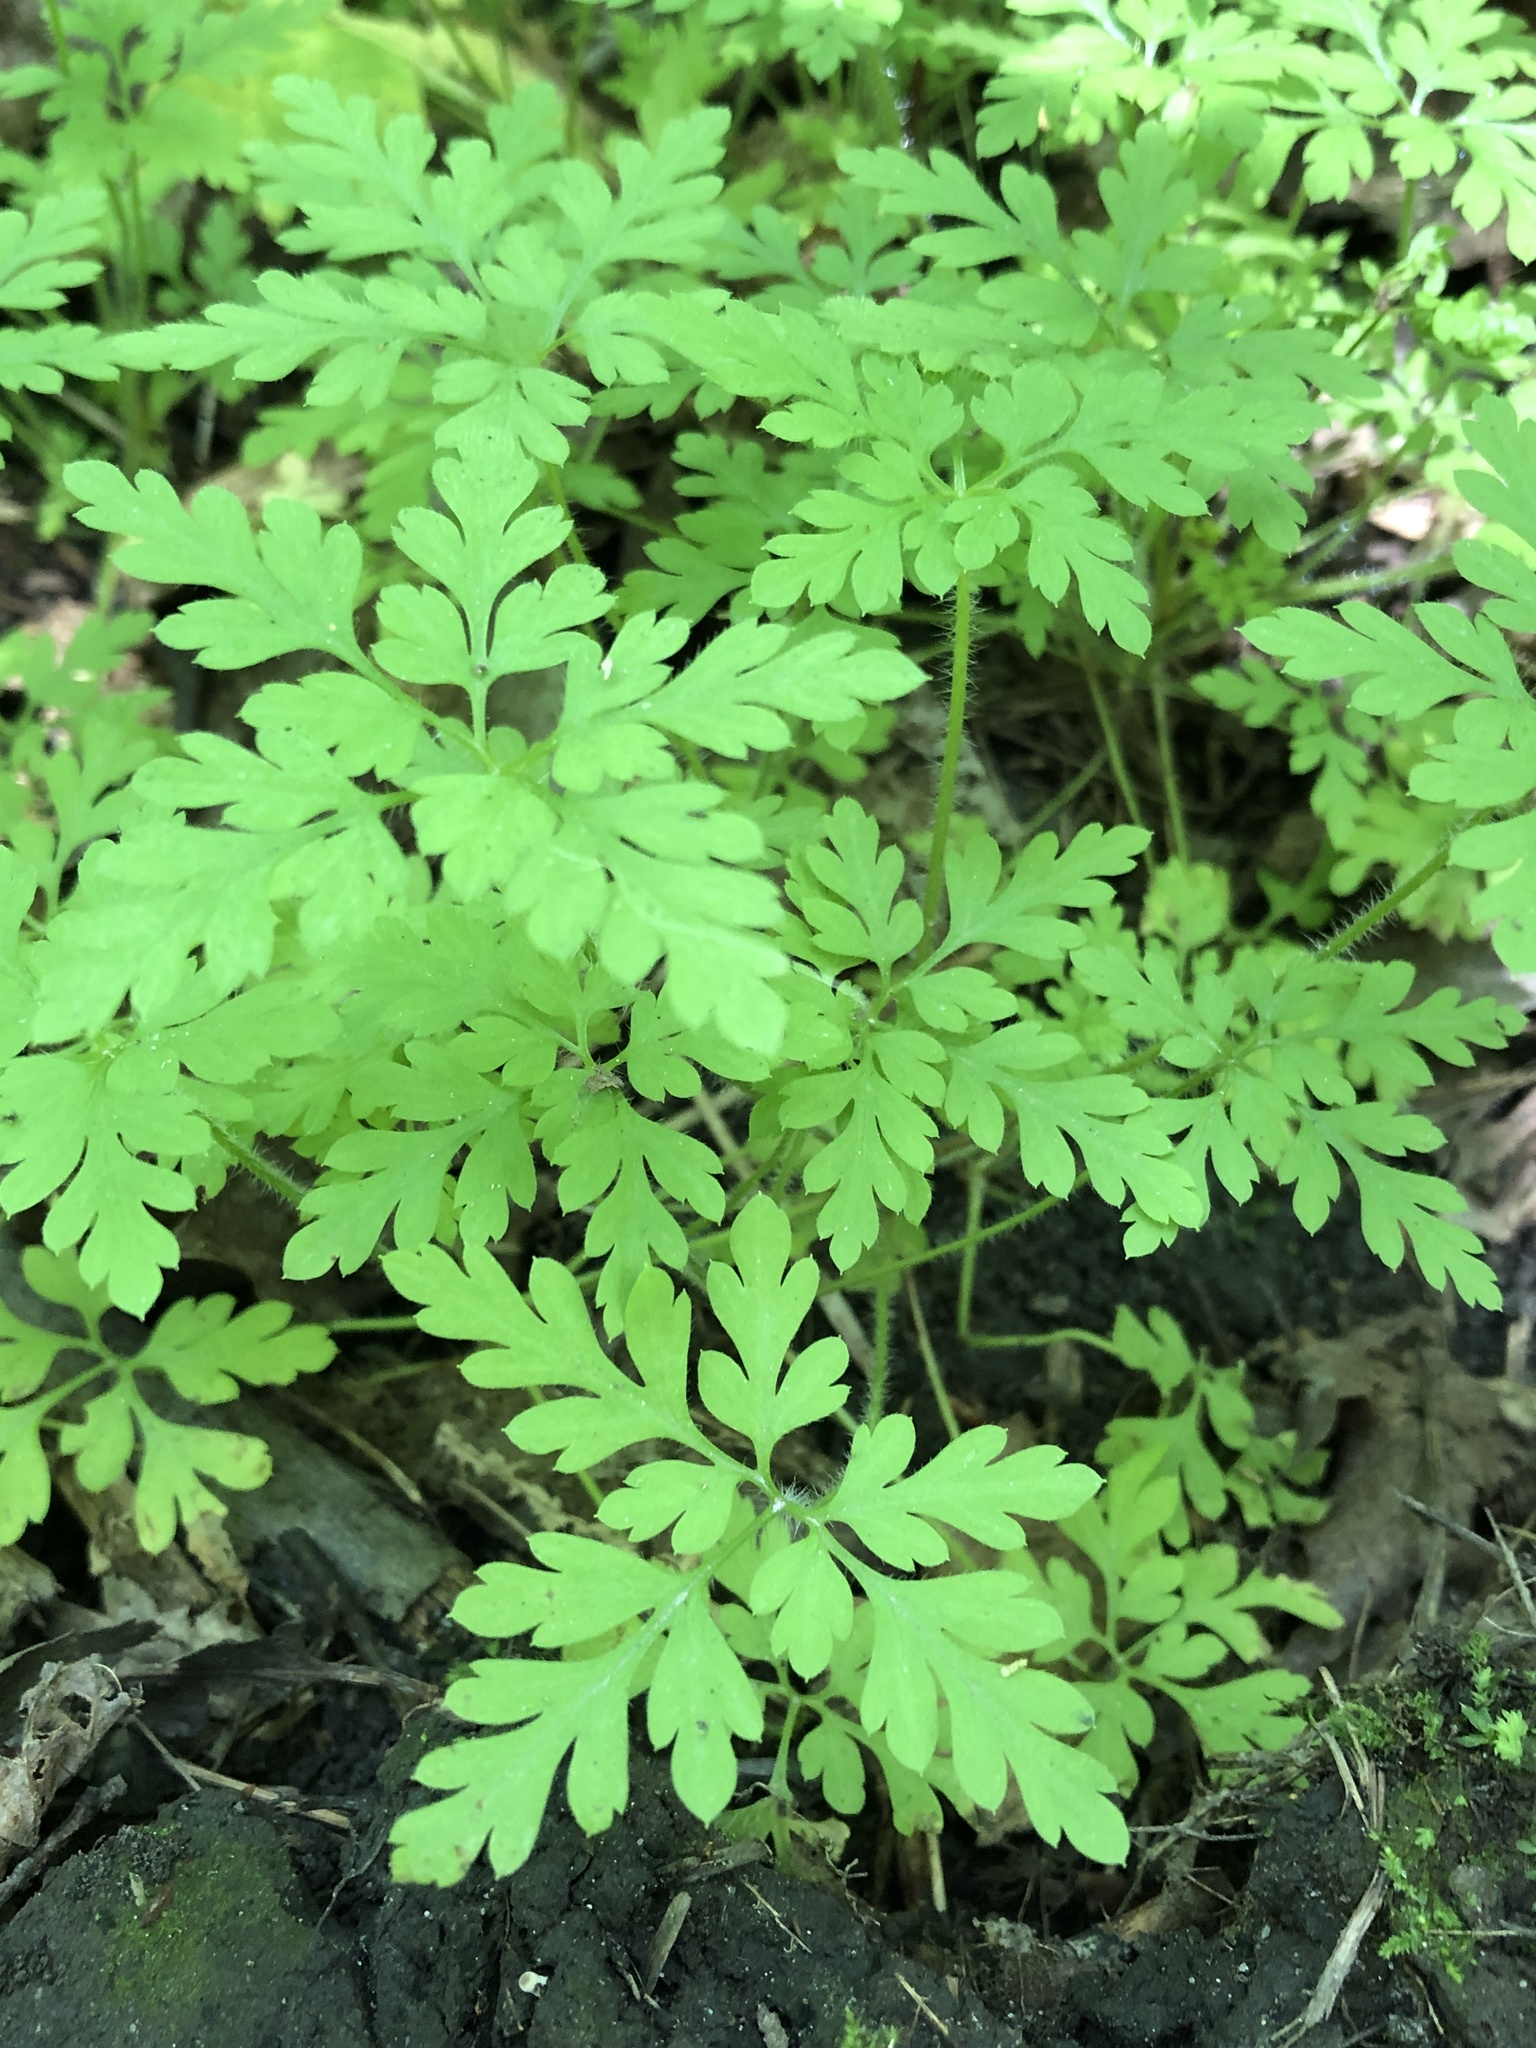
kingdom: Plantae
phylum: Tracheophyta
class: Magnoliopsida
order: Geraniales
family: Geraniaceae
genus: Geranium
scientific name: Geranium robertianum
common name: Herb-robert
